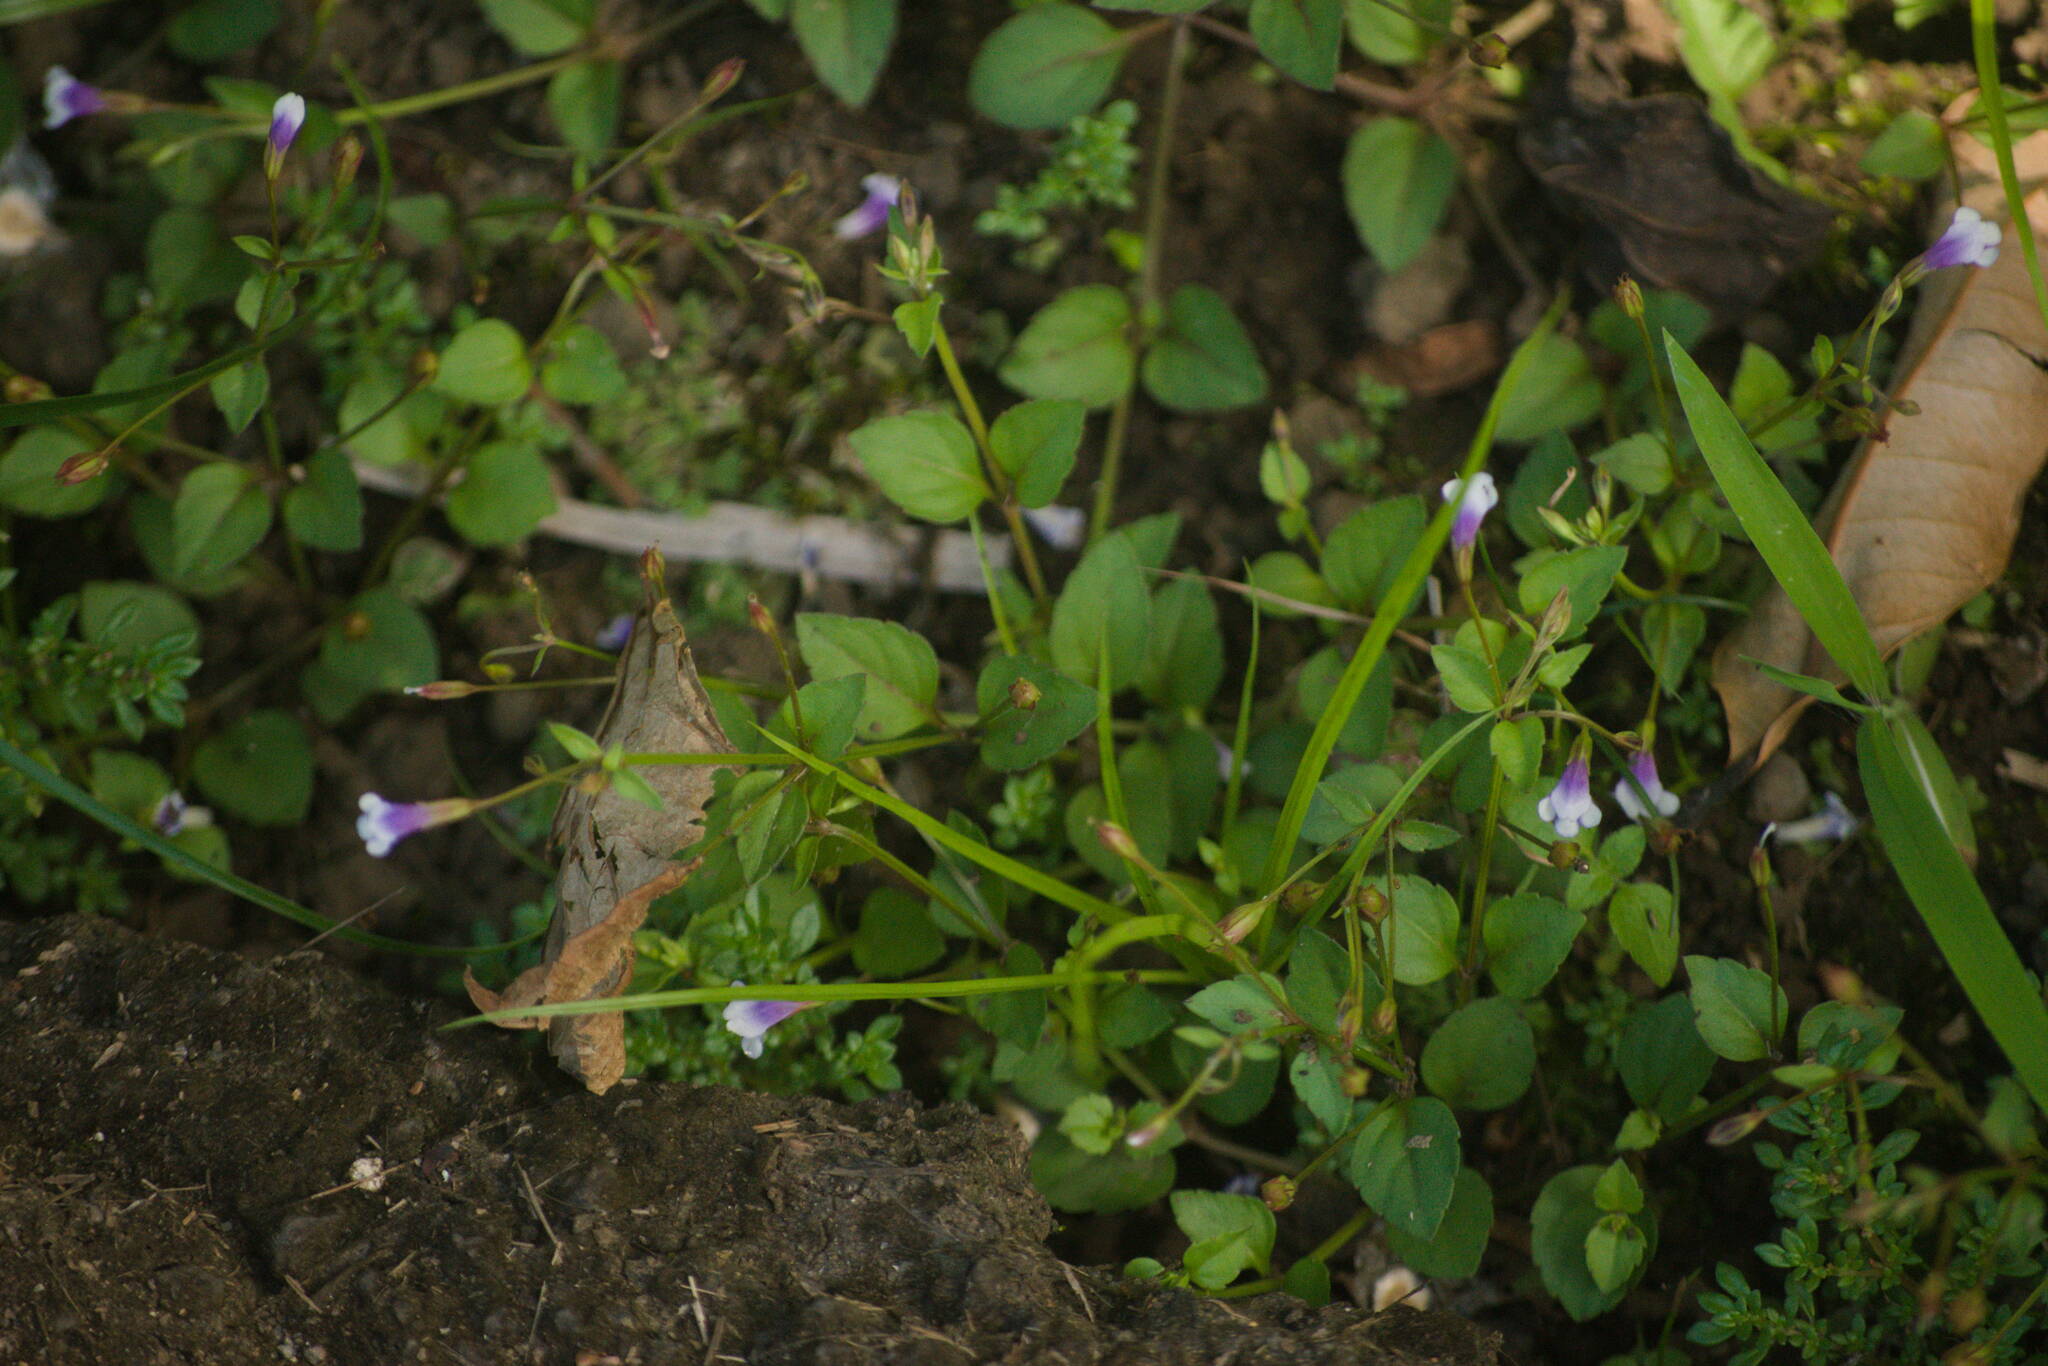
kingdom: Plantae
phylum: Tracheophyta
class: Magnoliopsida
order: Lamiales
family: Linderniaceae
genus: Torenia
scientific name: Torenia crustacea
